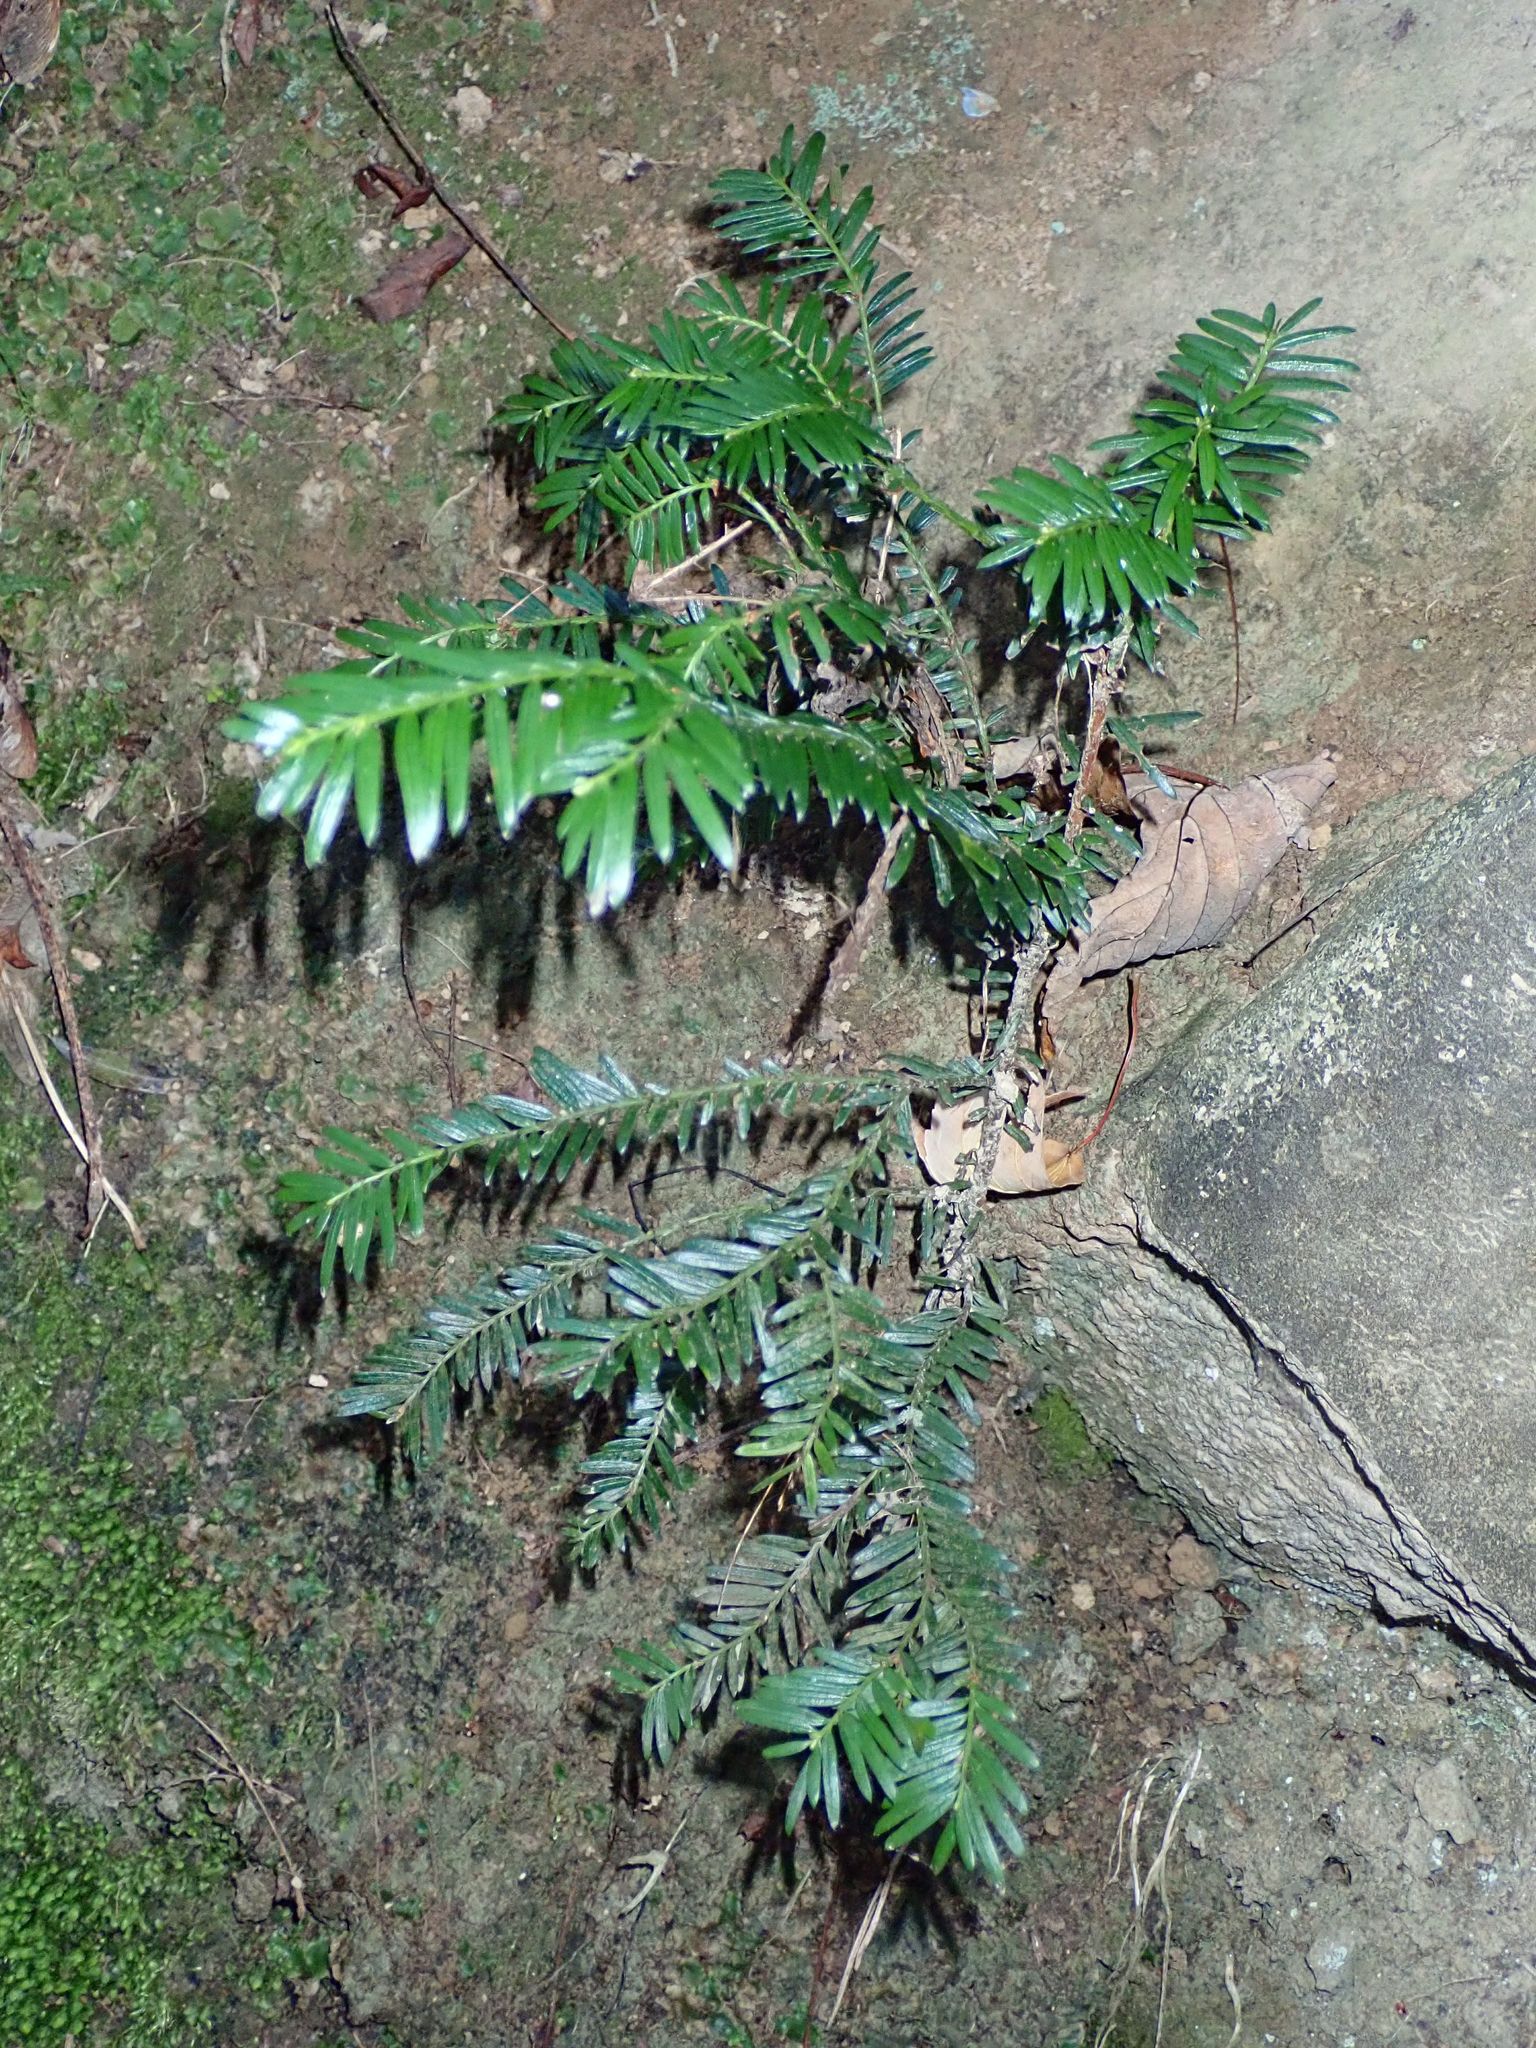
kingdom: Plantae
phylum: Tracheophyta
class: Pinopsida
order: Pinales
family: Taxaceae
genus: Taxus
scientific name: Taxus baccata
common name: Yew
